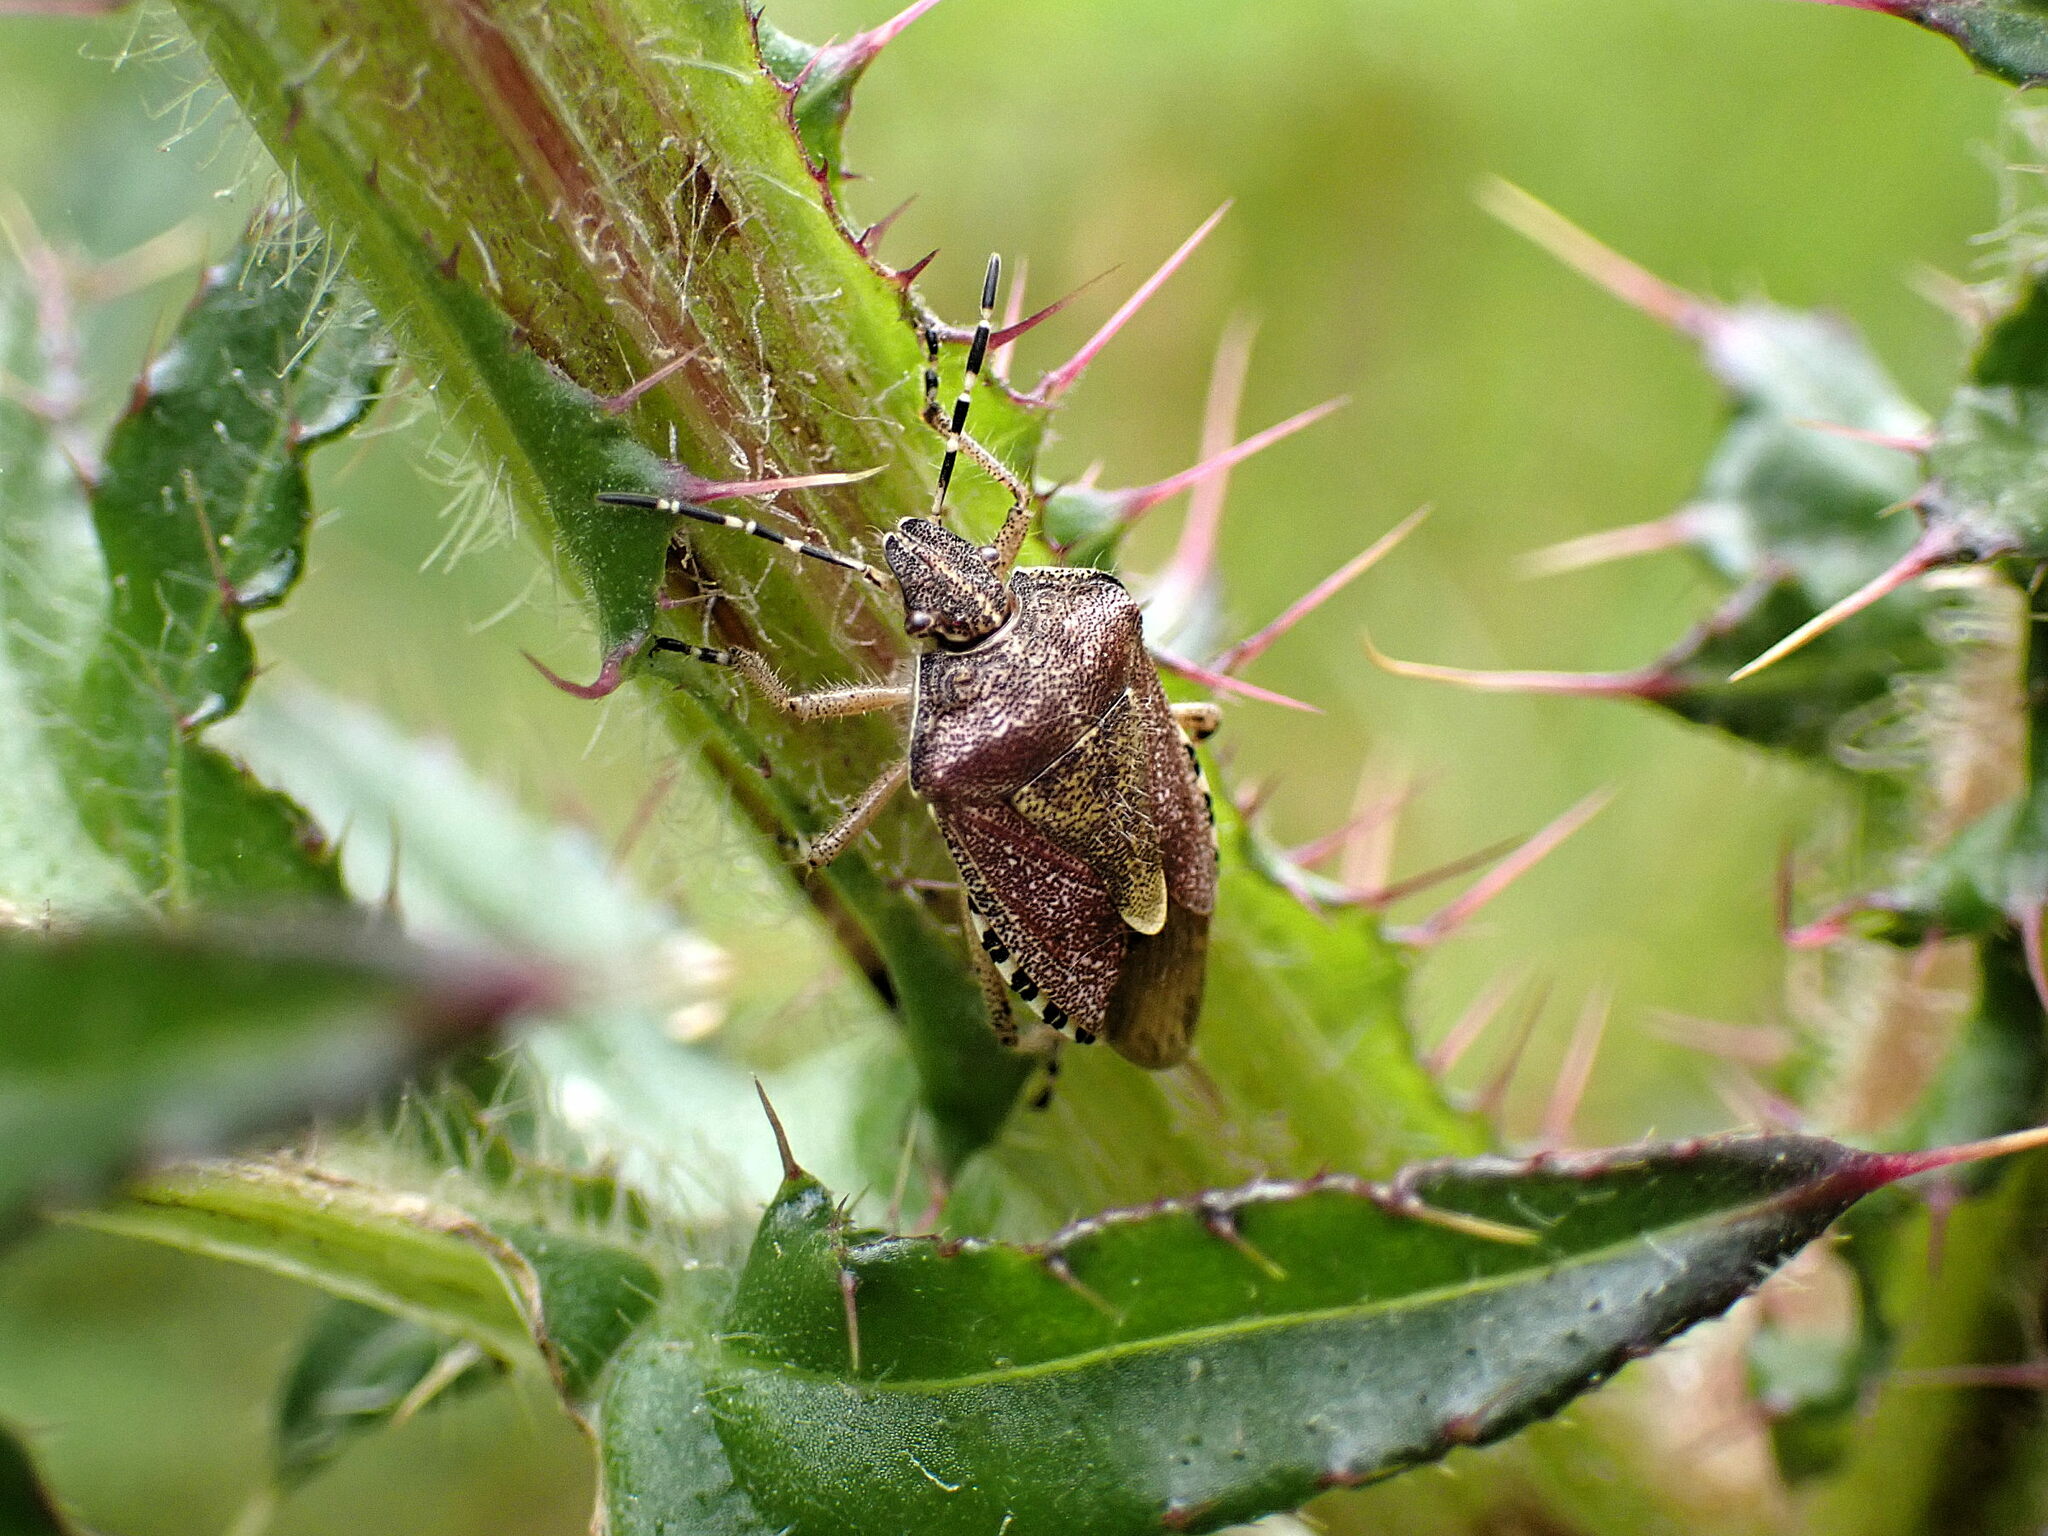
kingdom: Animalia
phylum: Arthropoda
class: Insecta
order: Hemiptera
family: Pentatomidae
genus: Dolycoris
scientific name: Dolycoris baccarum
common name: Sloe bug
